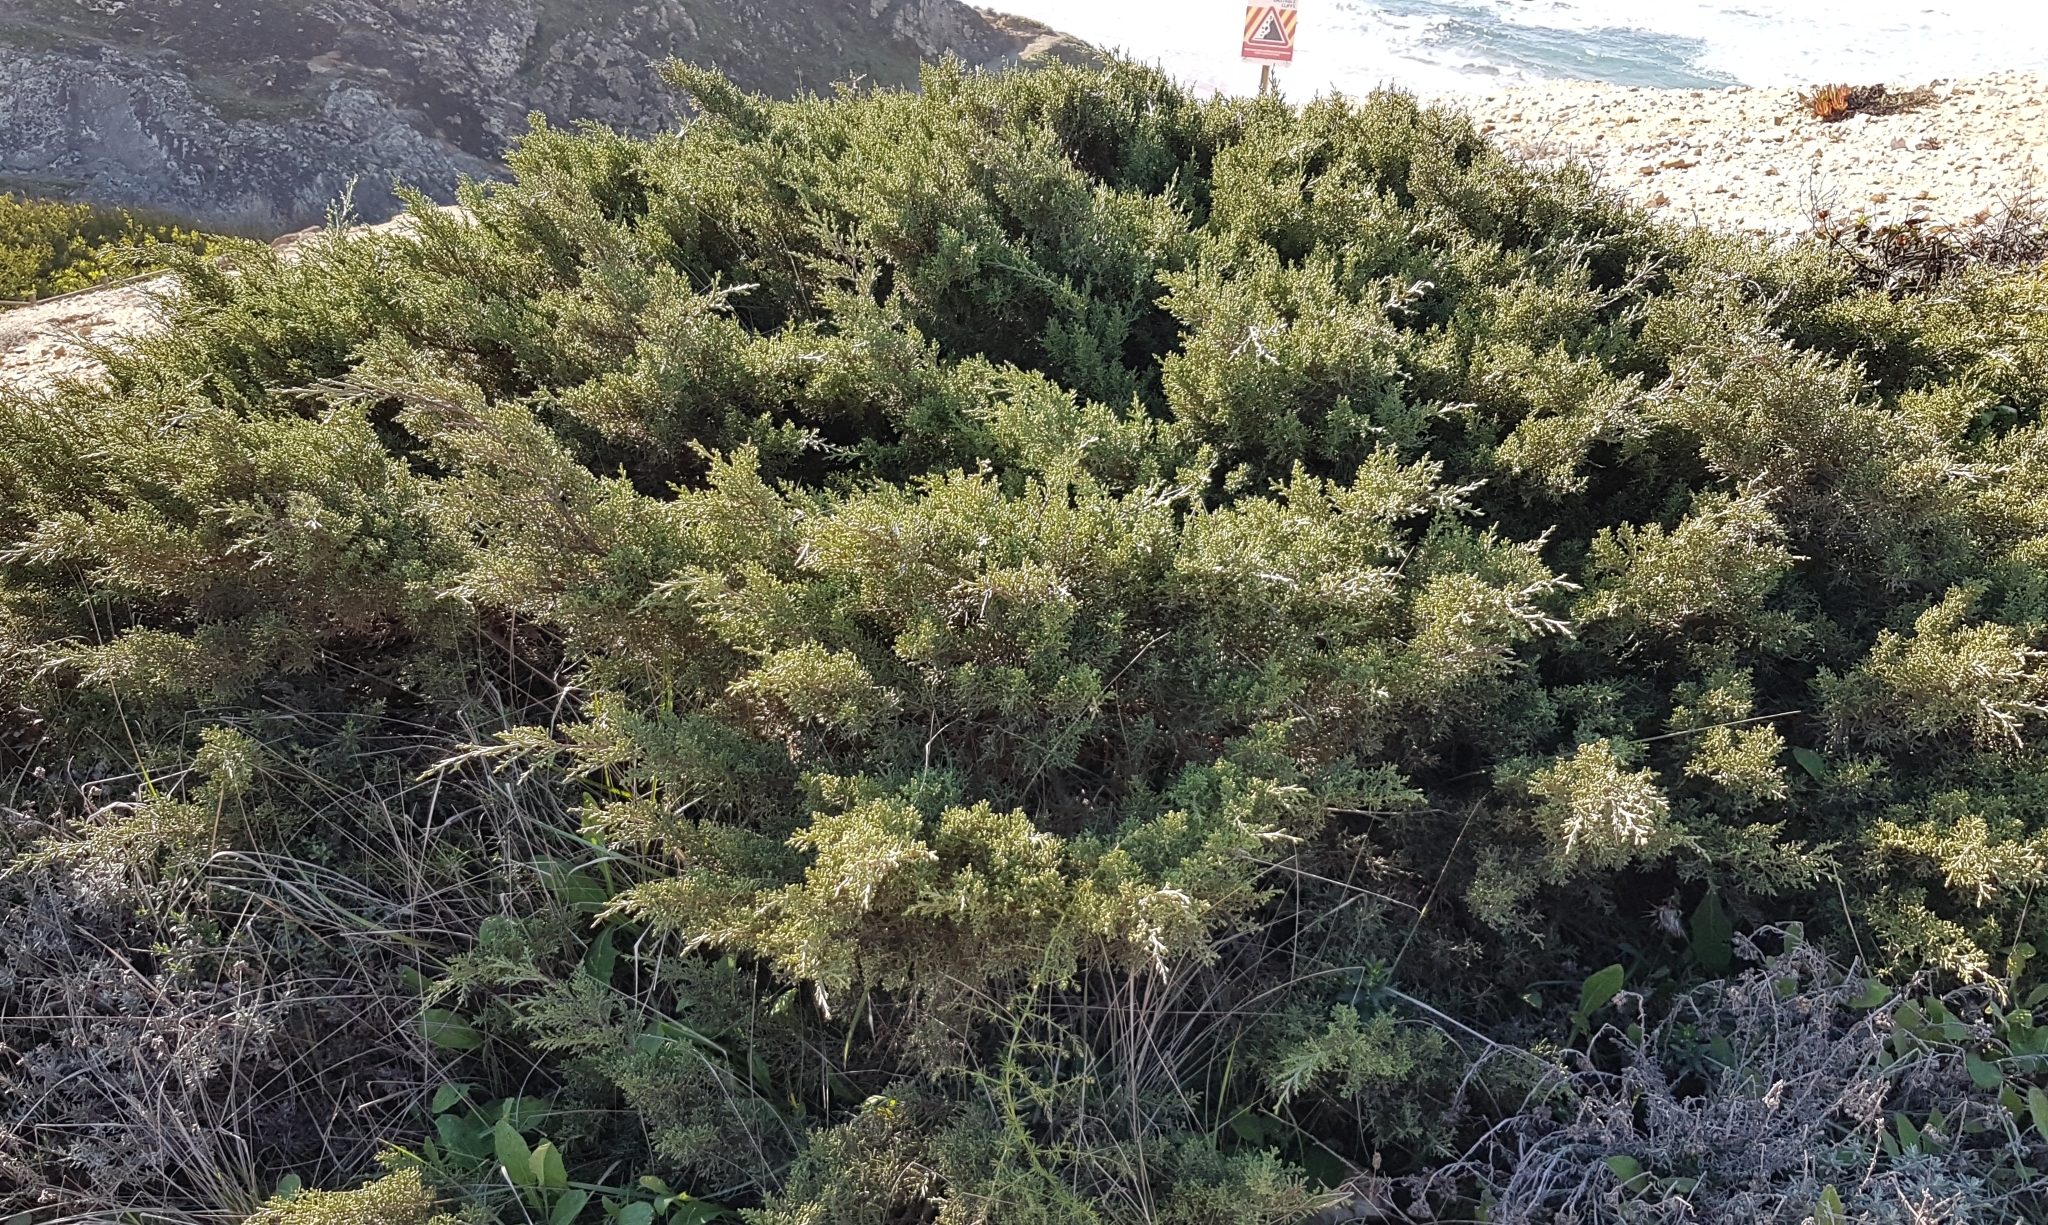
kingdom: Plantae
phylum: Tracheophyta
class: Pinopsida
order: Pinales
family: Cupressaceae
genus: Juniperus
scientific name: Juniperus phoenicea
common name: Phoenician juniper
